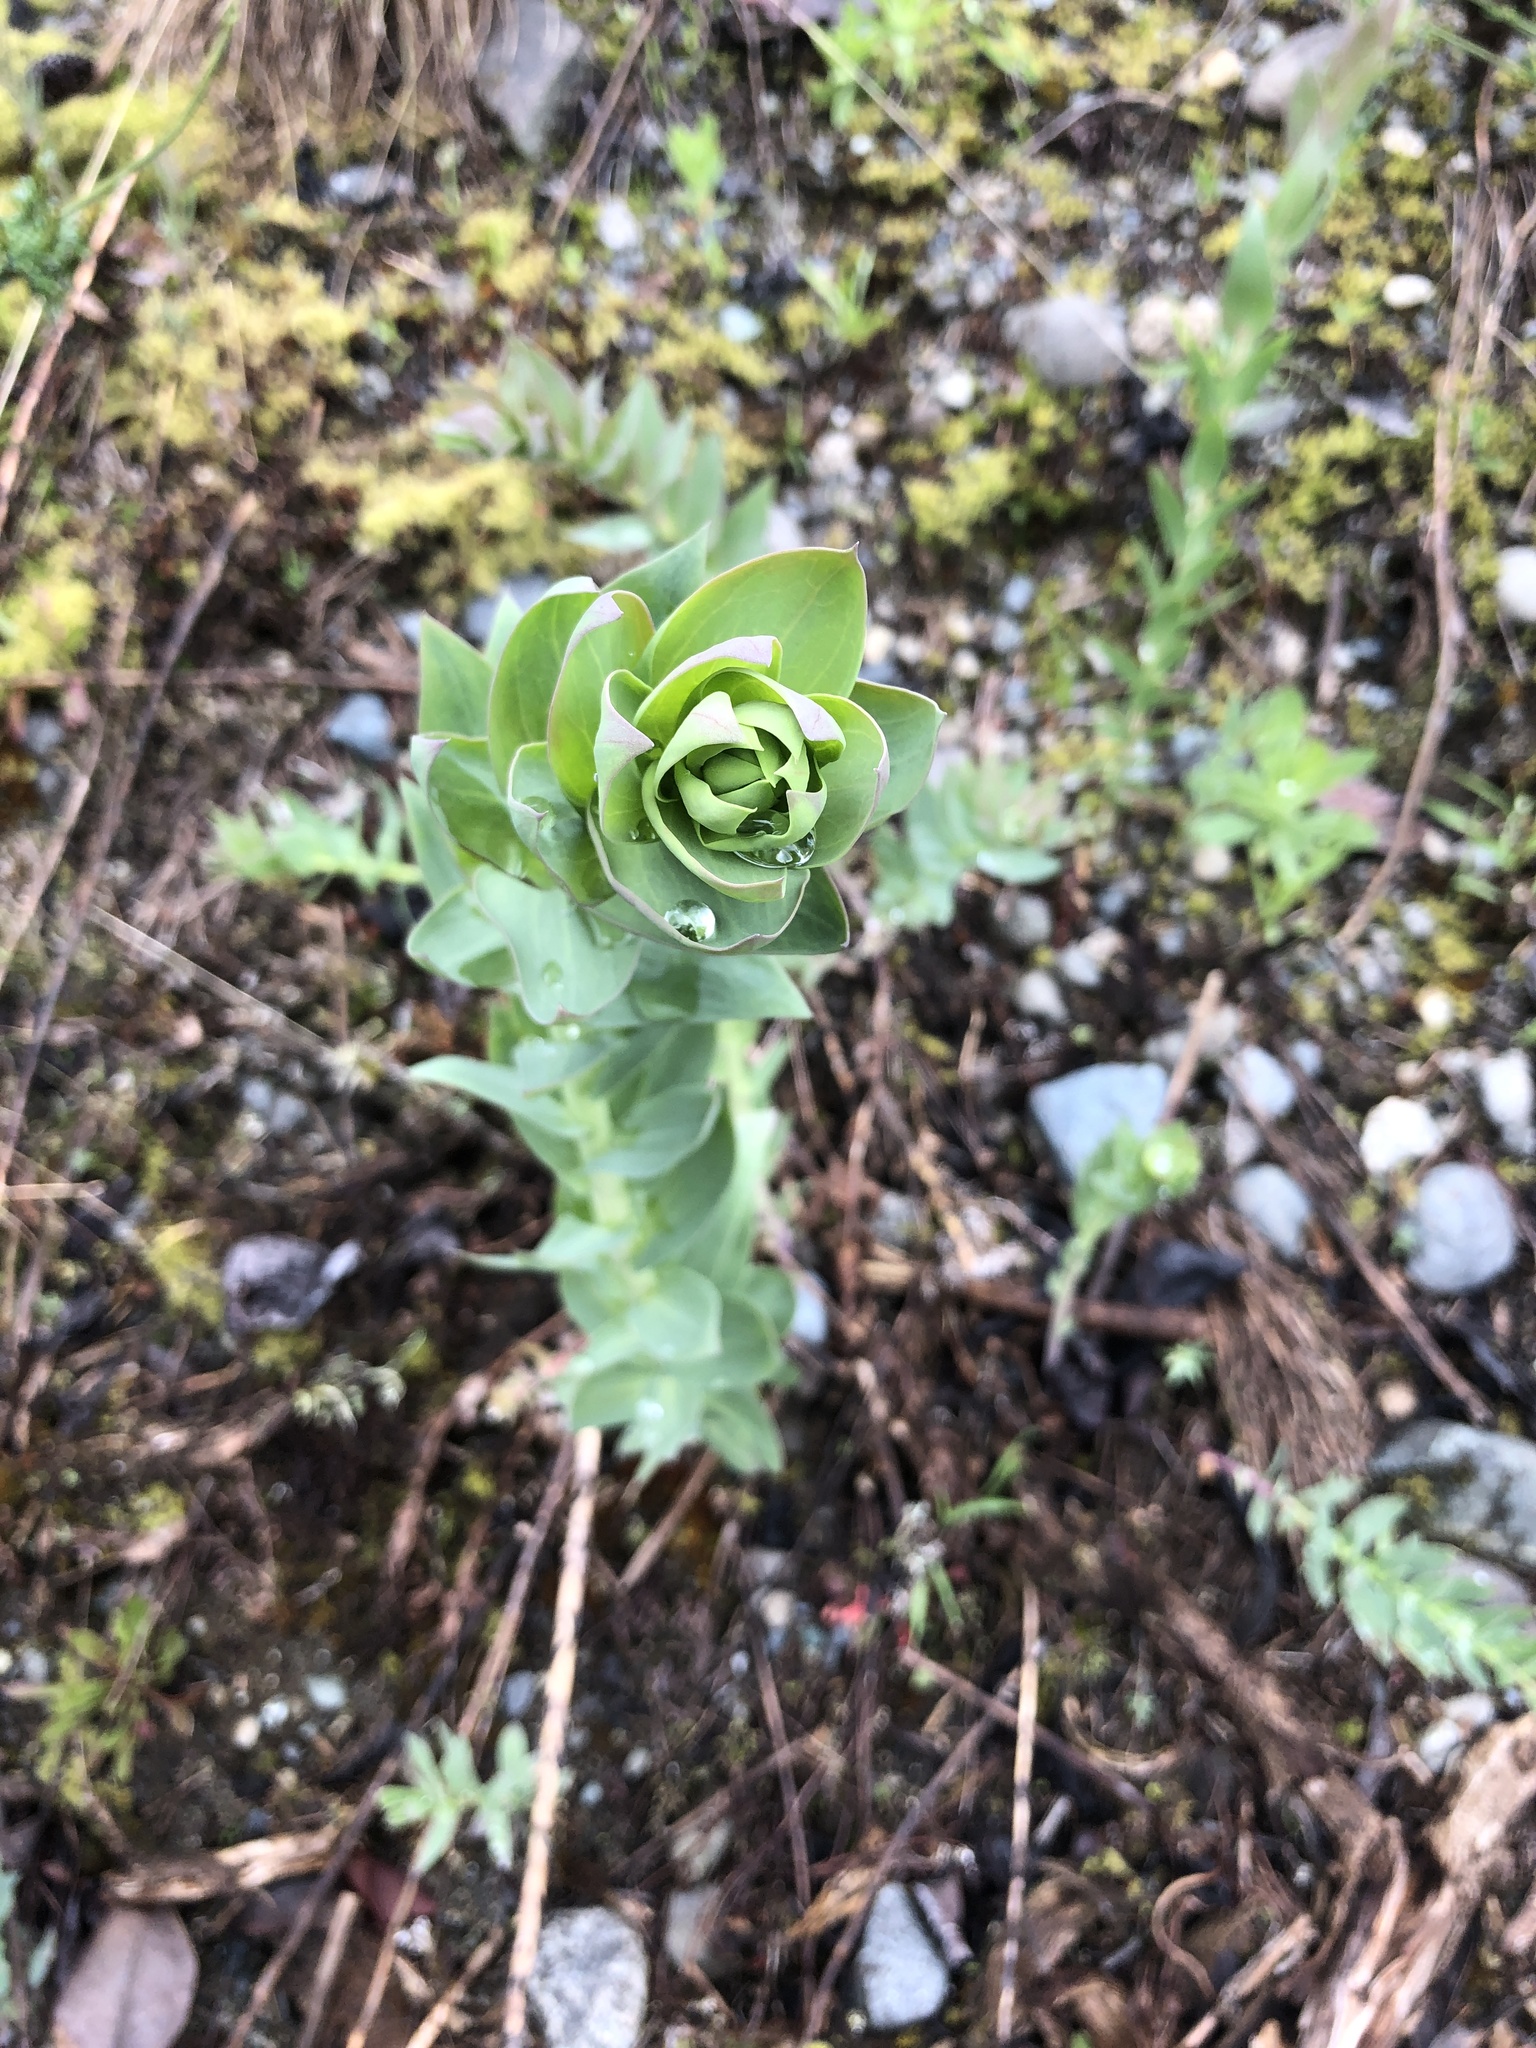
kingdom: Plantae
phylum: Tracheophyta
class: Magnoliopsida
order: Lamiales
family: Plantaginaceae
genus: Linaria
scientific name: Linaria dalmatica
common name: Dalmatian toadflax
